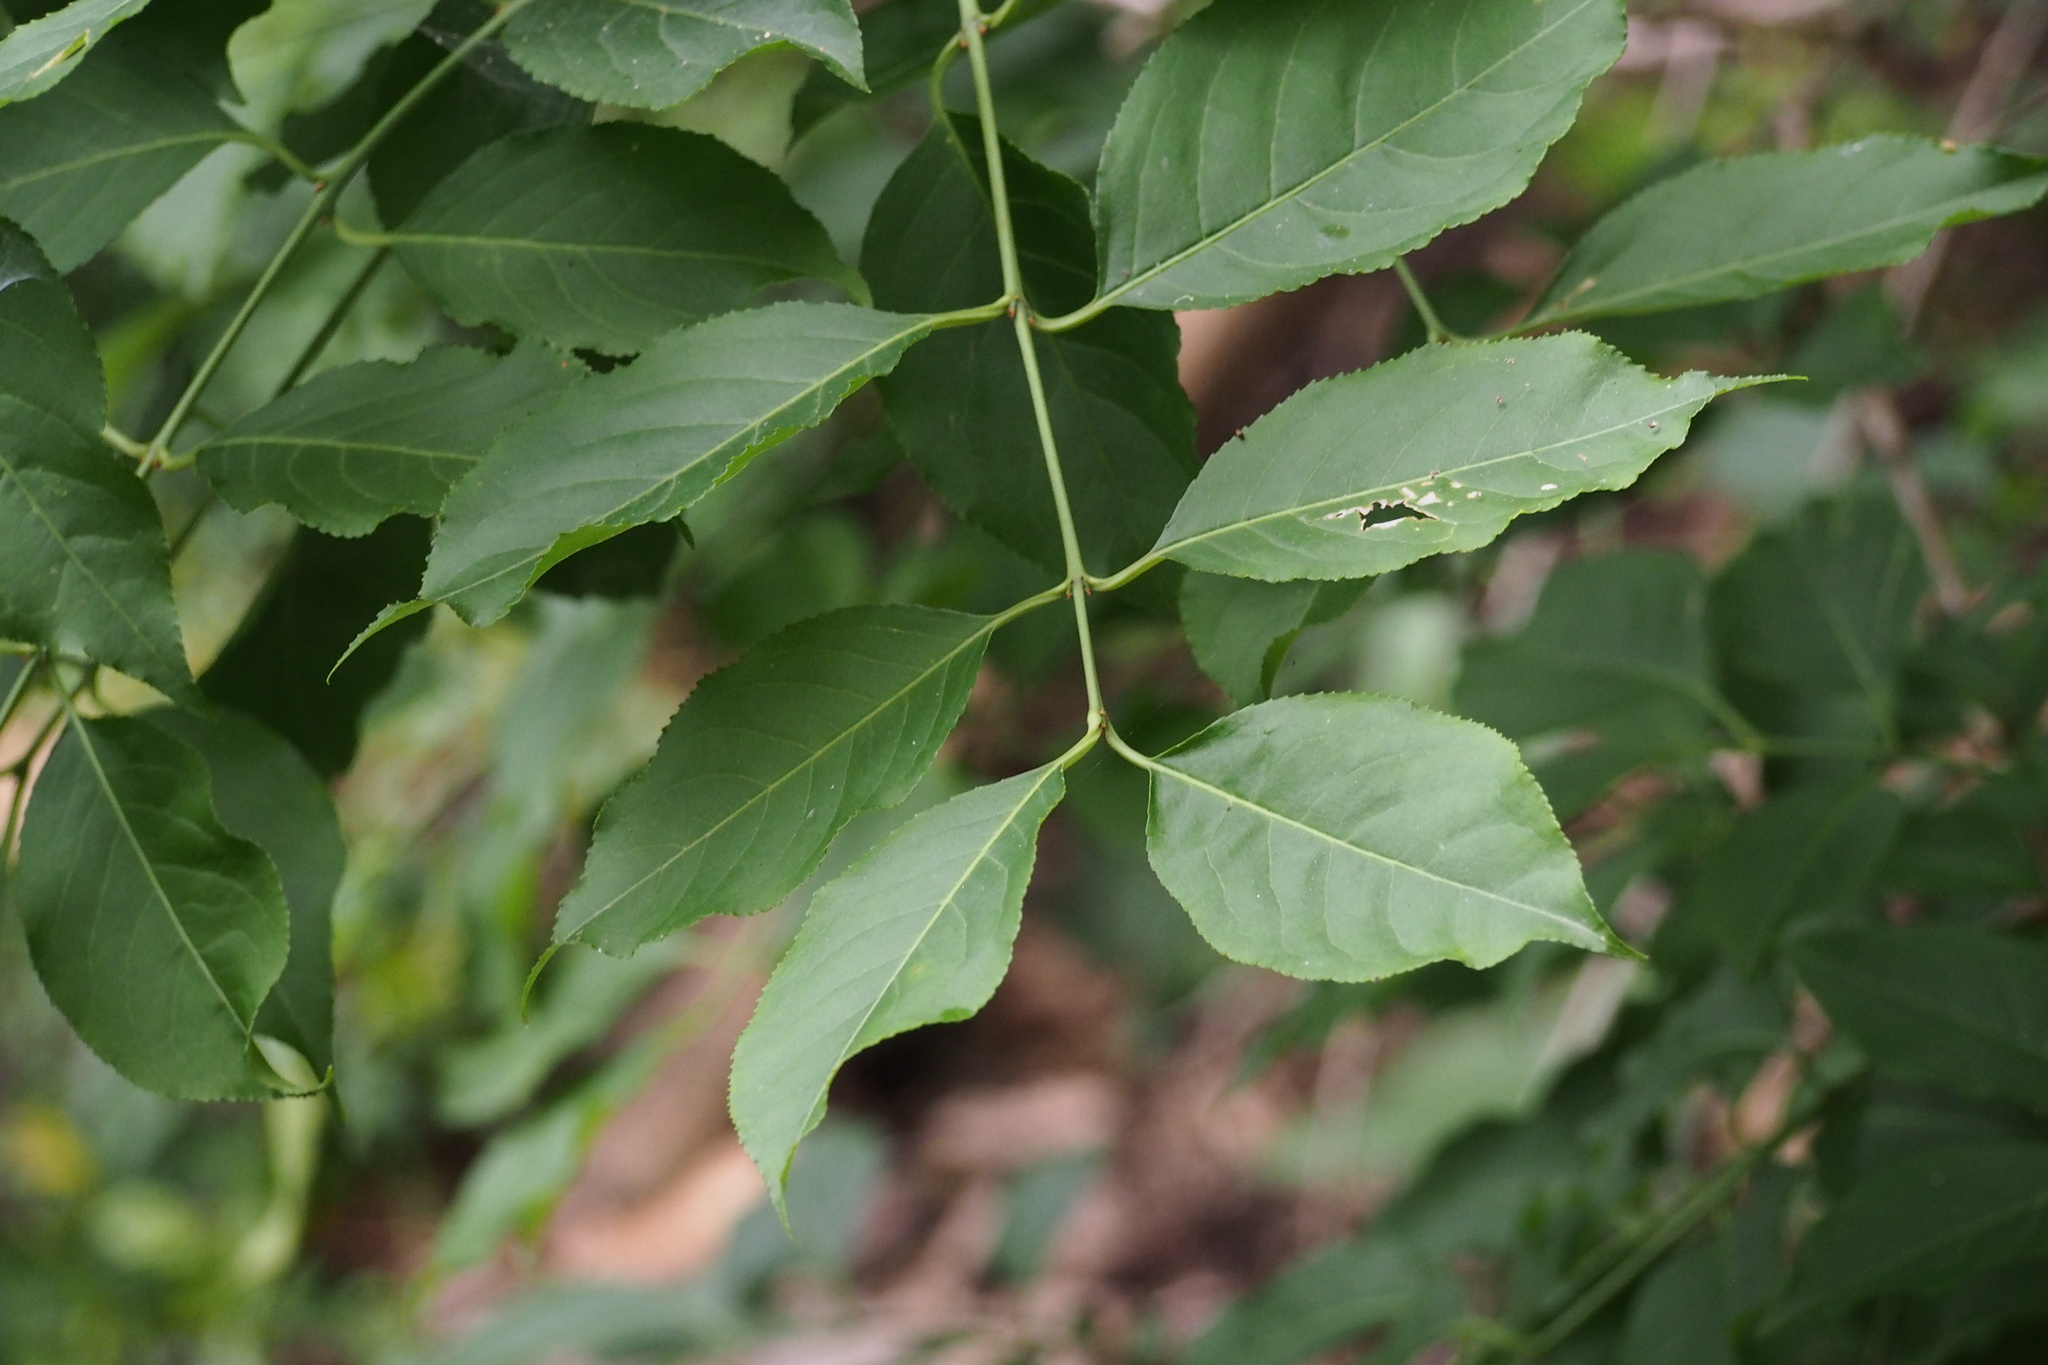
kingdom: Plantae
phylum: Tracheophyta
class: Magnoliopsida
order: Celastrales
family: Celastraceae
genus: Euonymus
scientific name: Euonymus hamiltonianus
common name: Hamilton's spindletree
